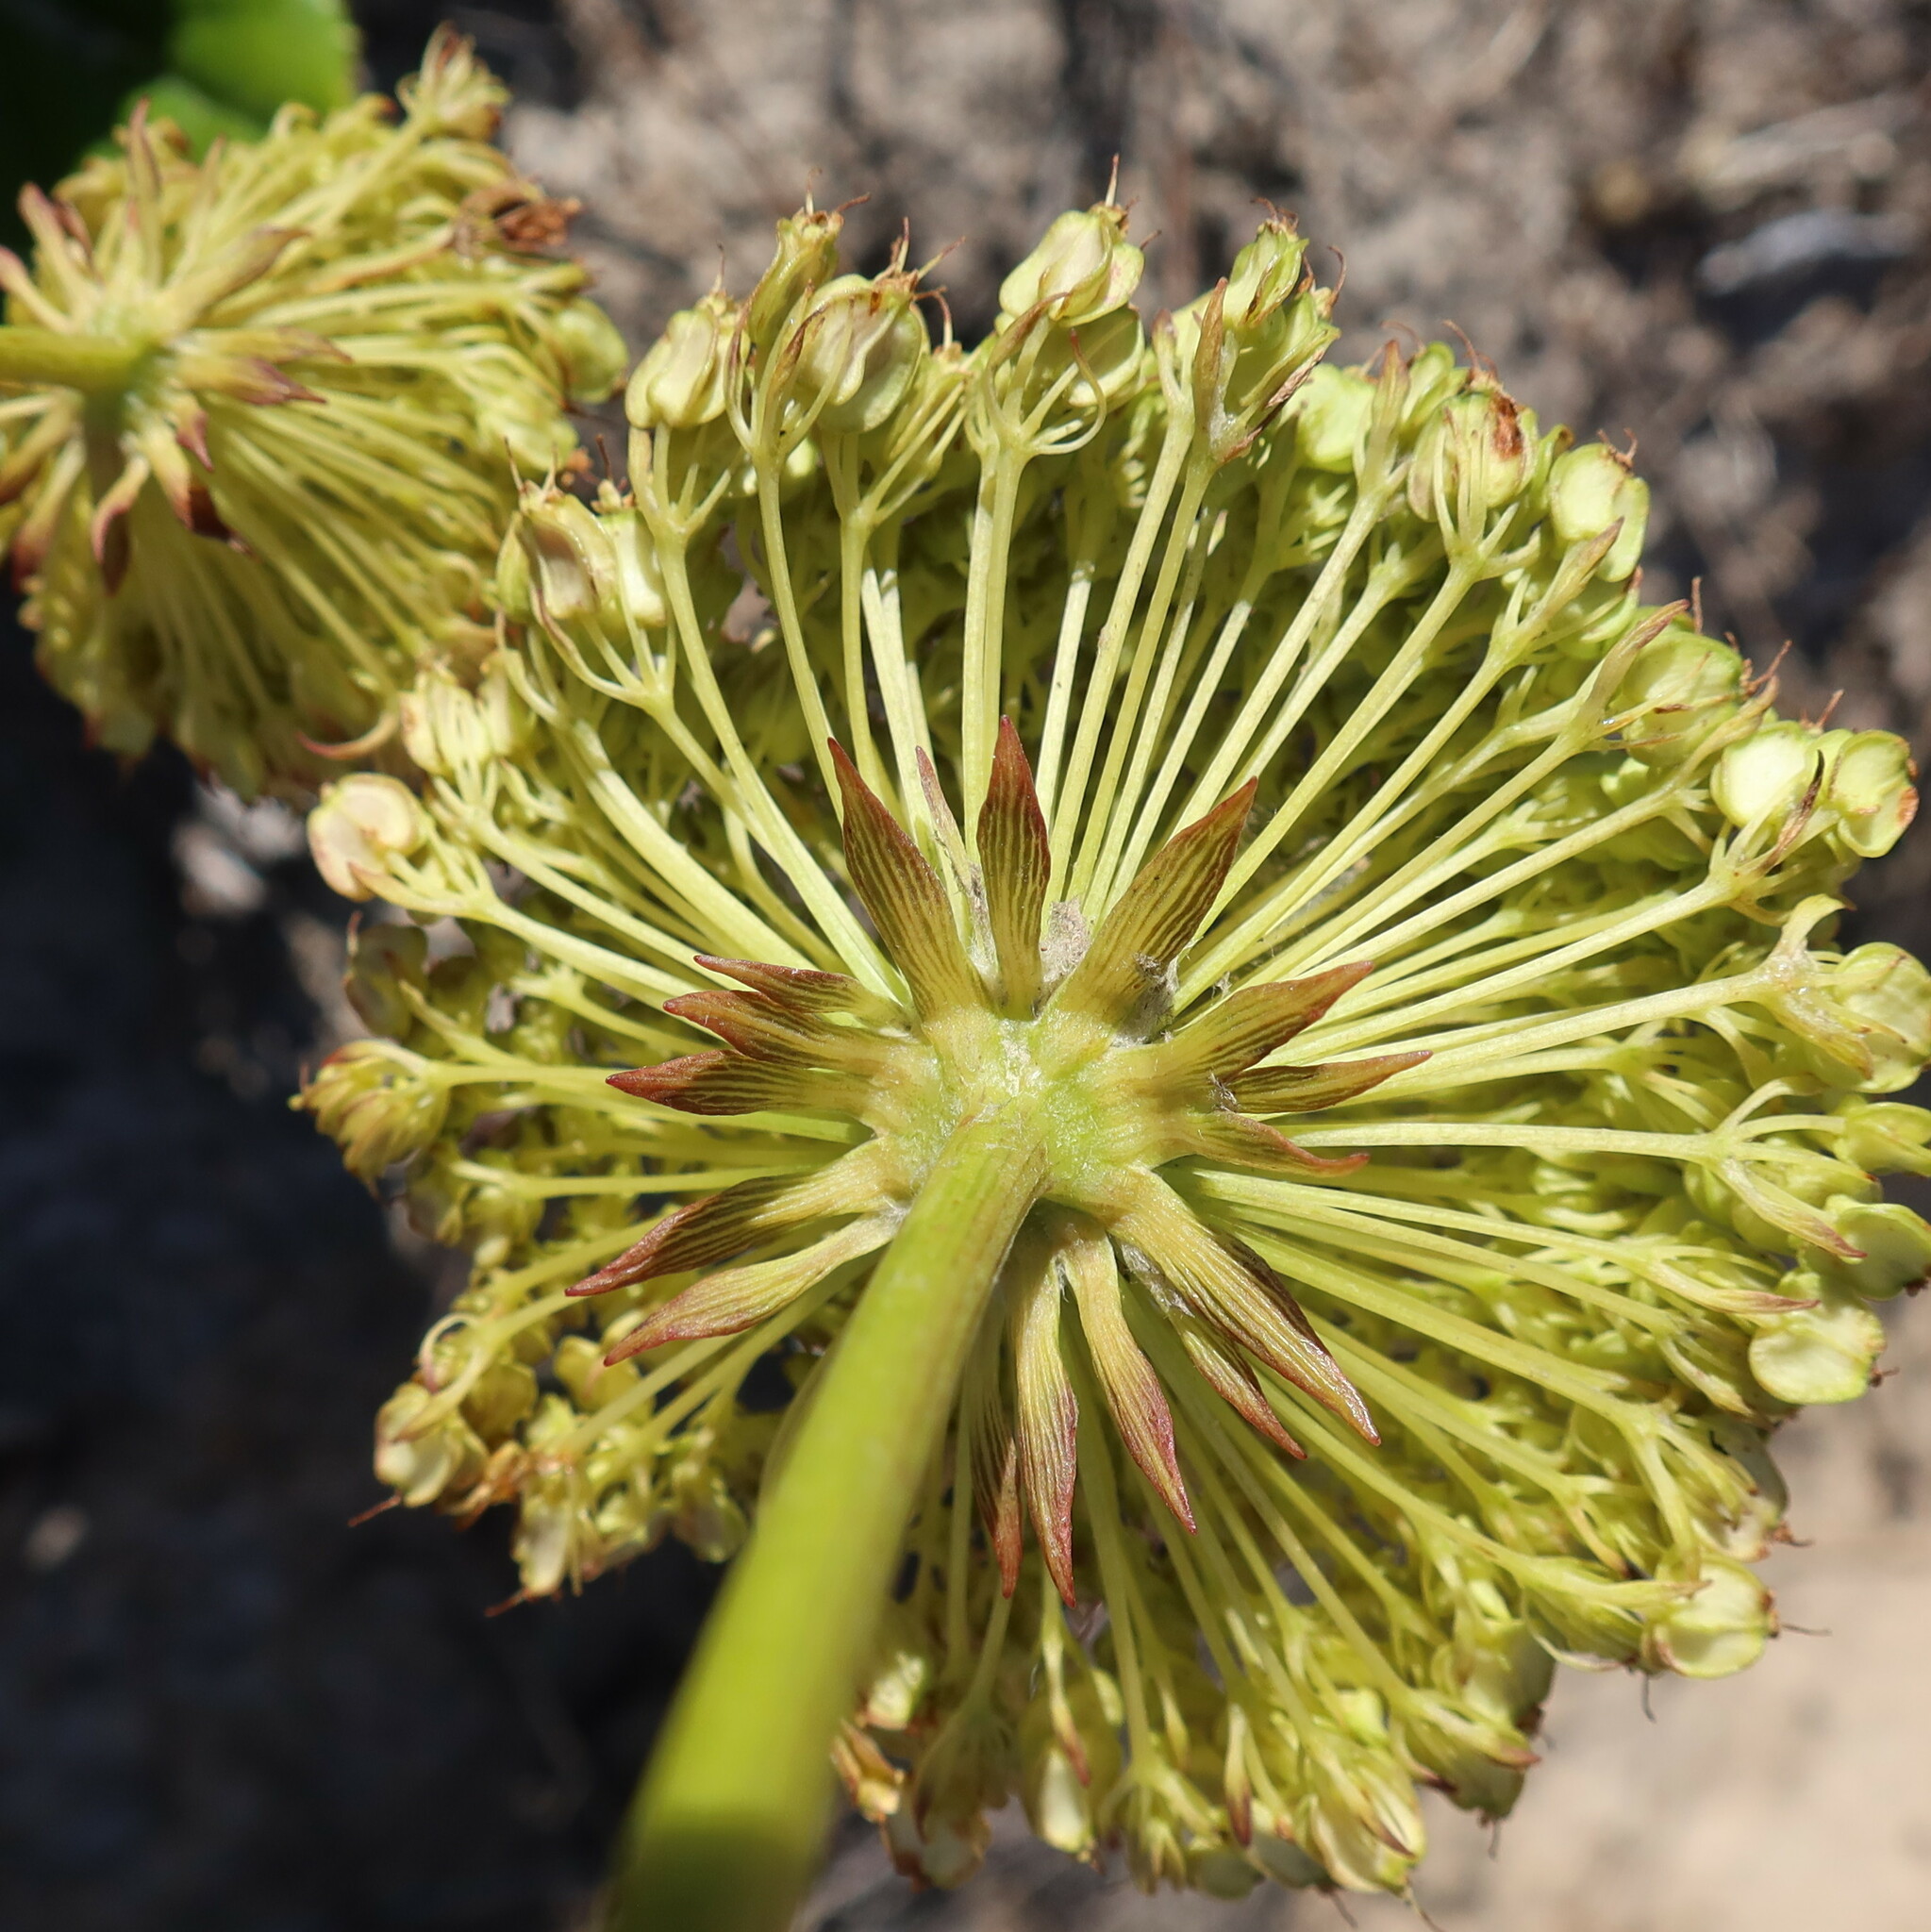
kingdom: Plantae
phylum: Tracheophyta
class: Magnoliopsida
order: Apiales
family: Apiaceae
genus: Hermas
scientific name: Hermas villosa
